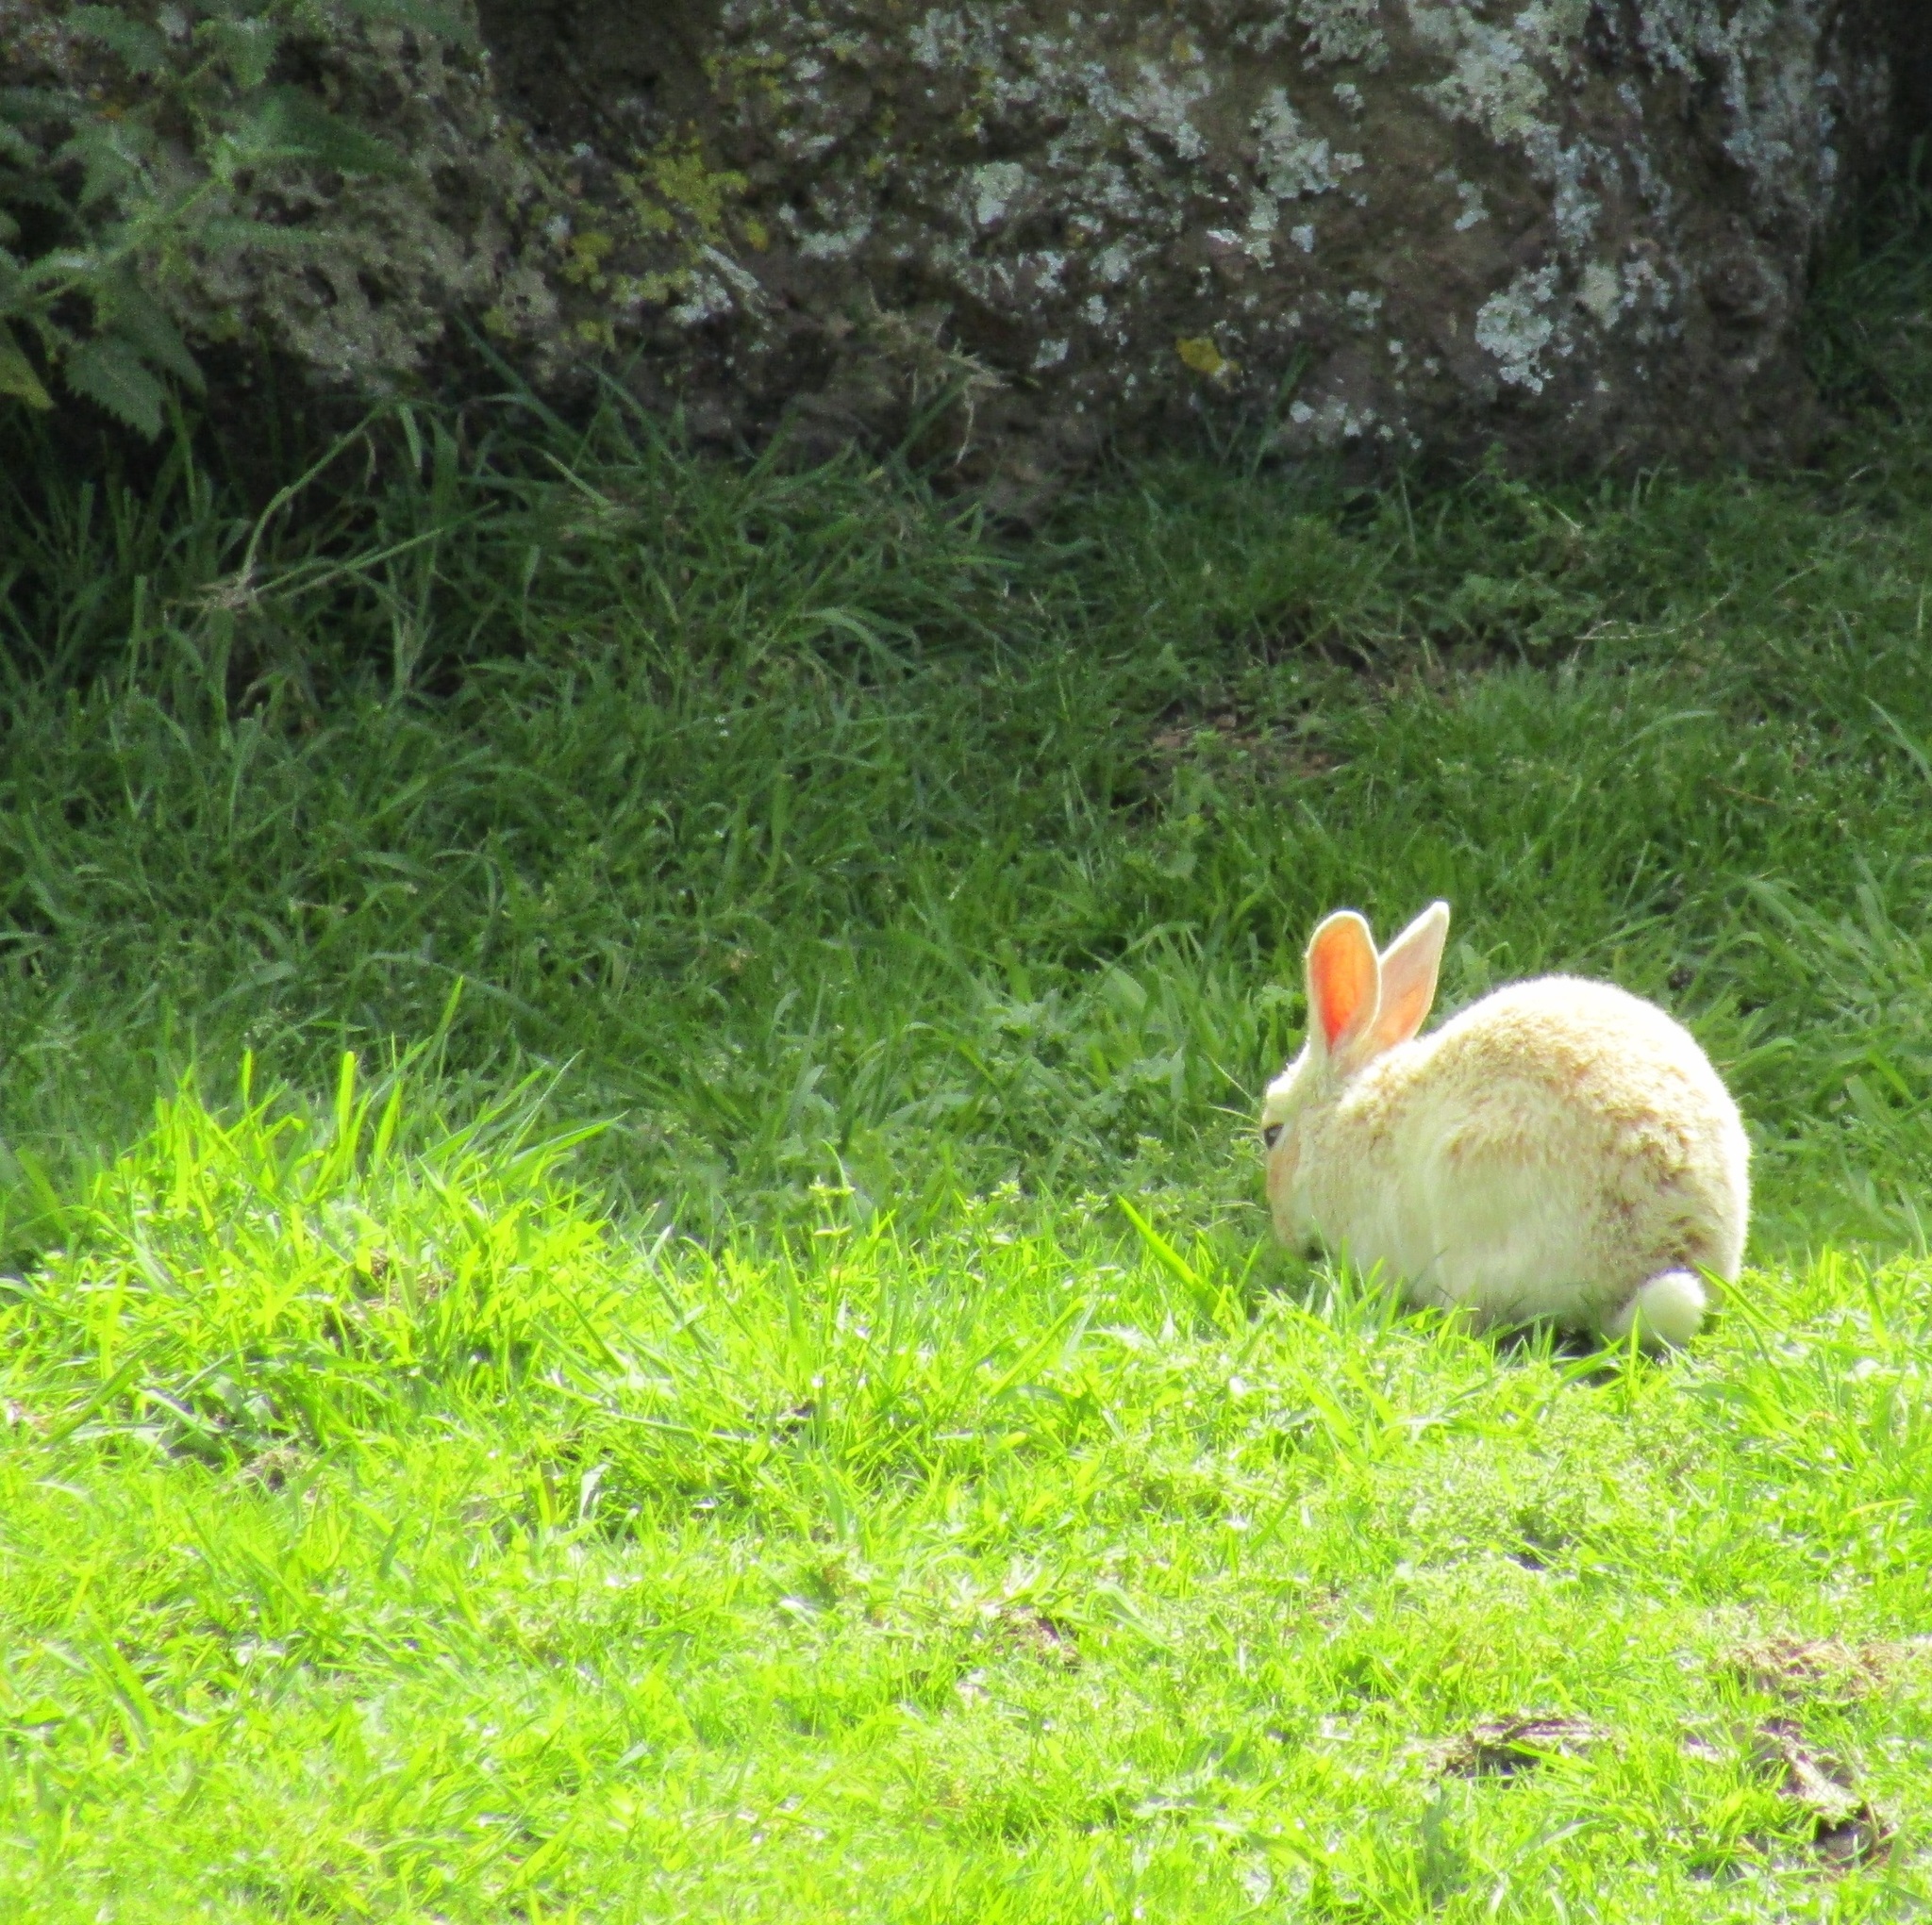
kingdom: Animalia
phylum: Chordata
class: Mammalia
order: Lagomorpha
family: Leporidae
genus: Oryctolagus
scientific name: Oryctolagus cuniculus
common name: European rabbit
